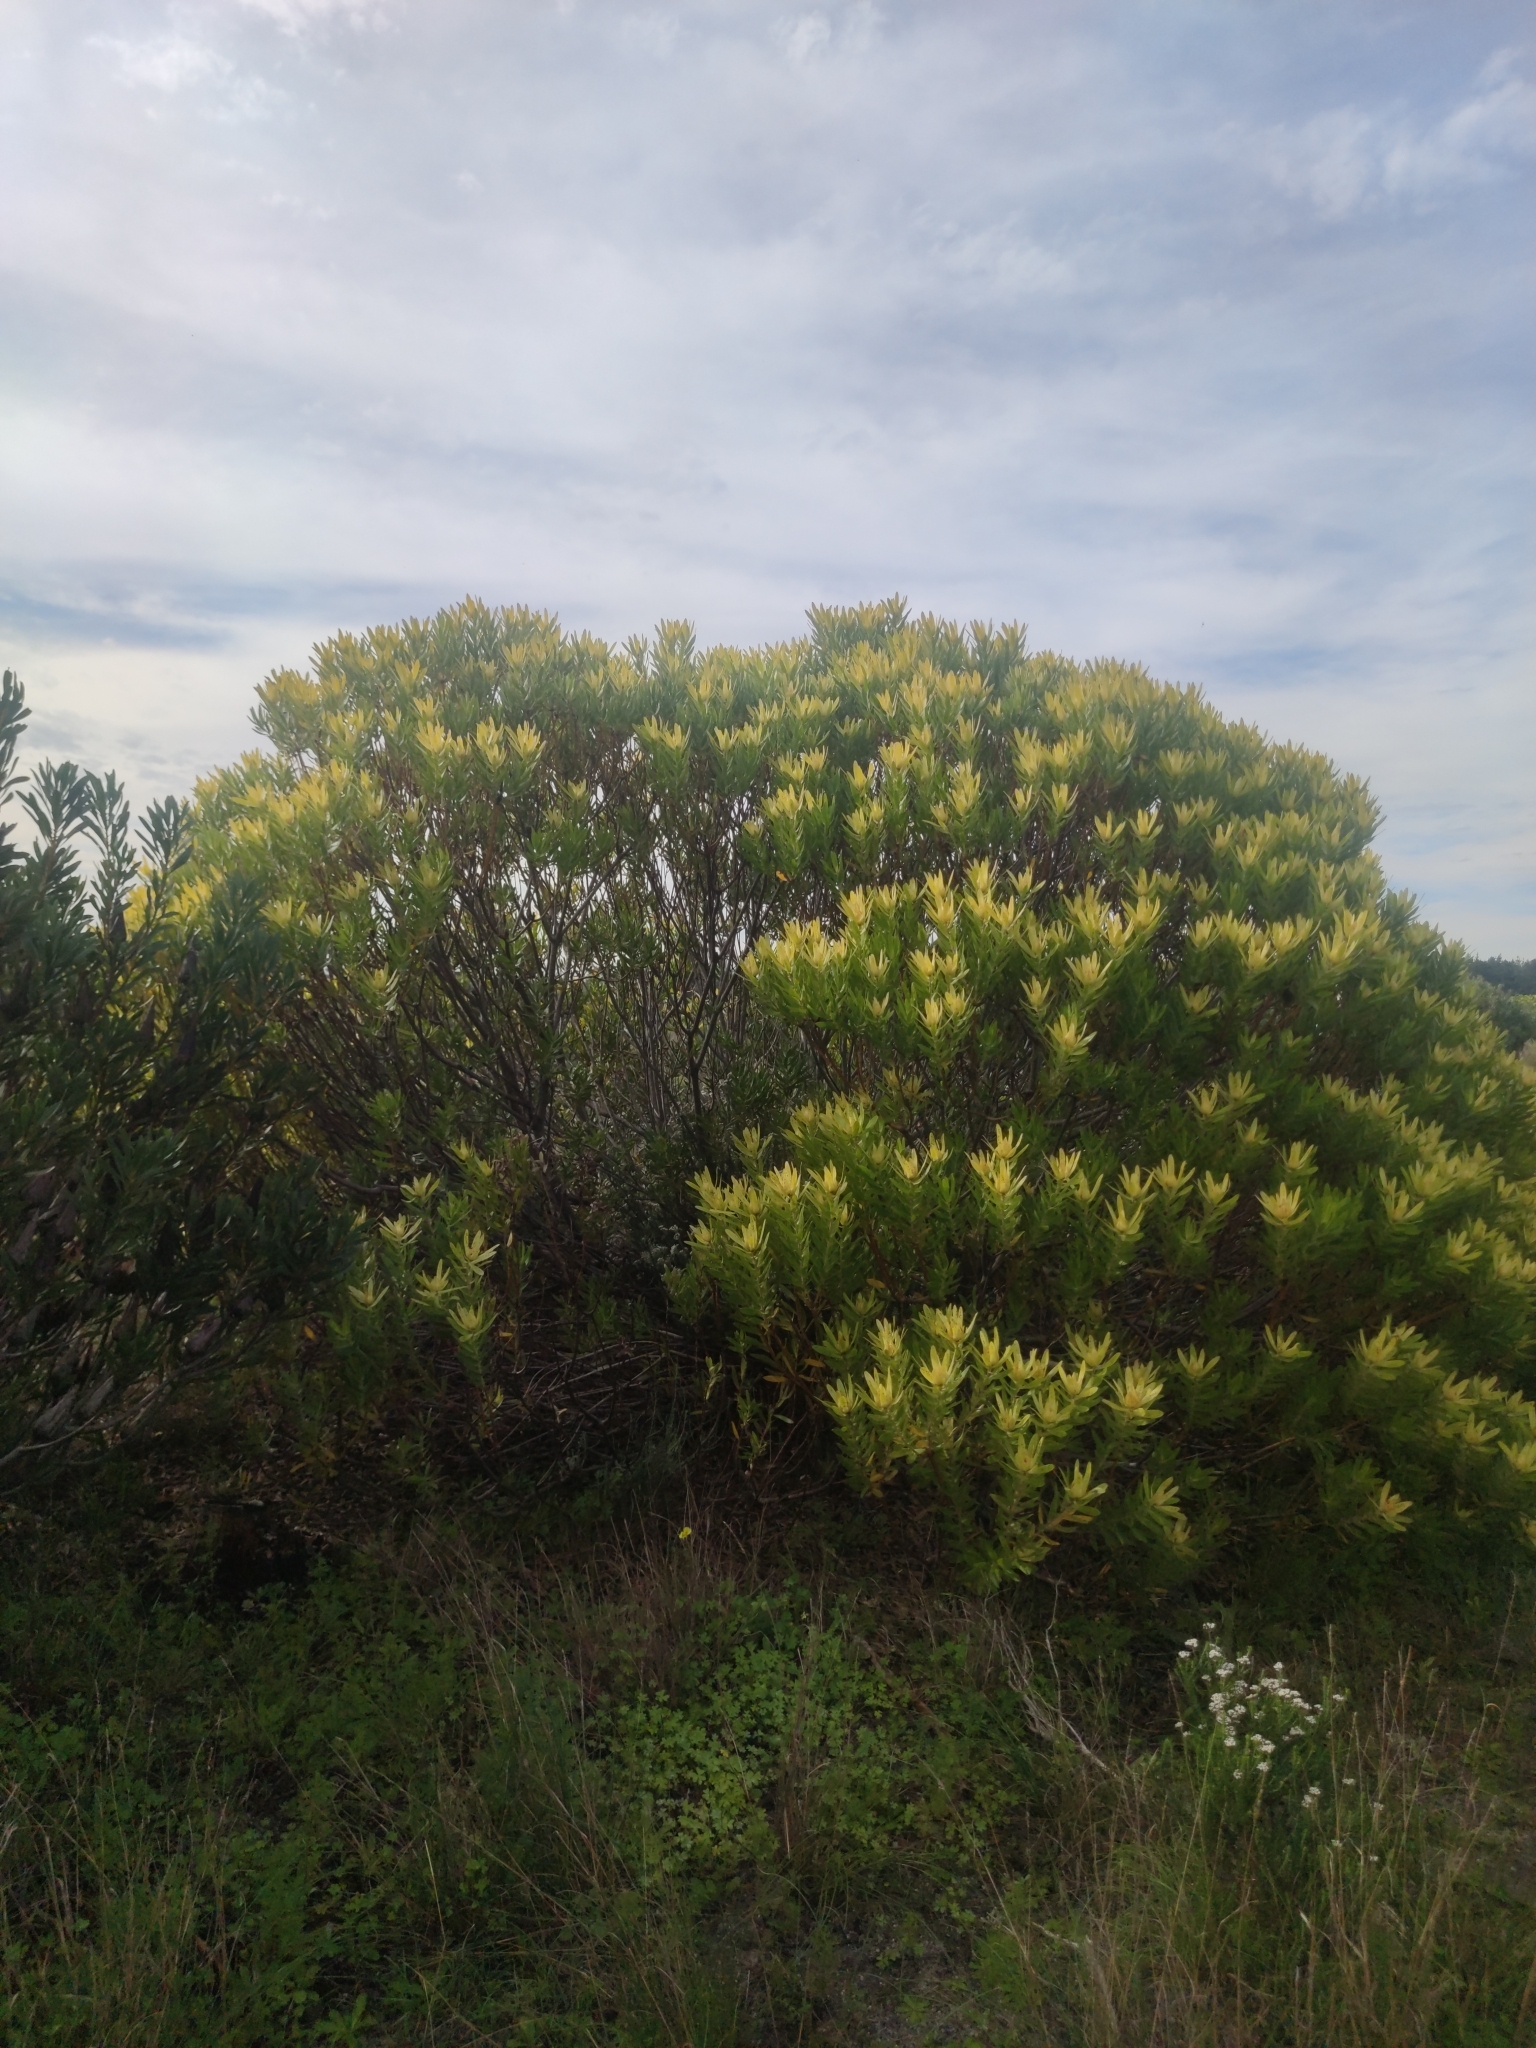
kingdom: Plantae
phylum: Tracheophyta
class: Magnoliopsida
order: Proteales
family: Proteaceae
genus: Leucadendron
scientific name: Leucadendron laureolum
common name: Golden sunshinebush
